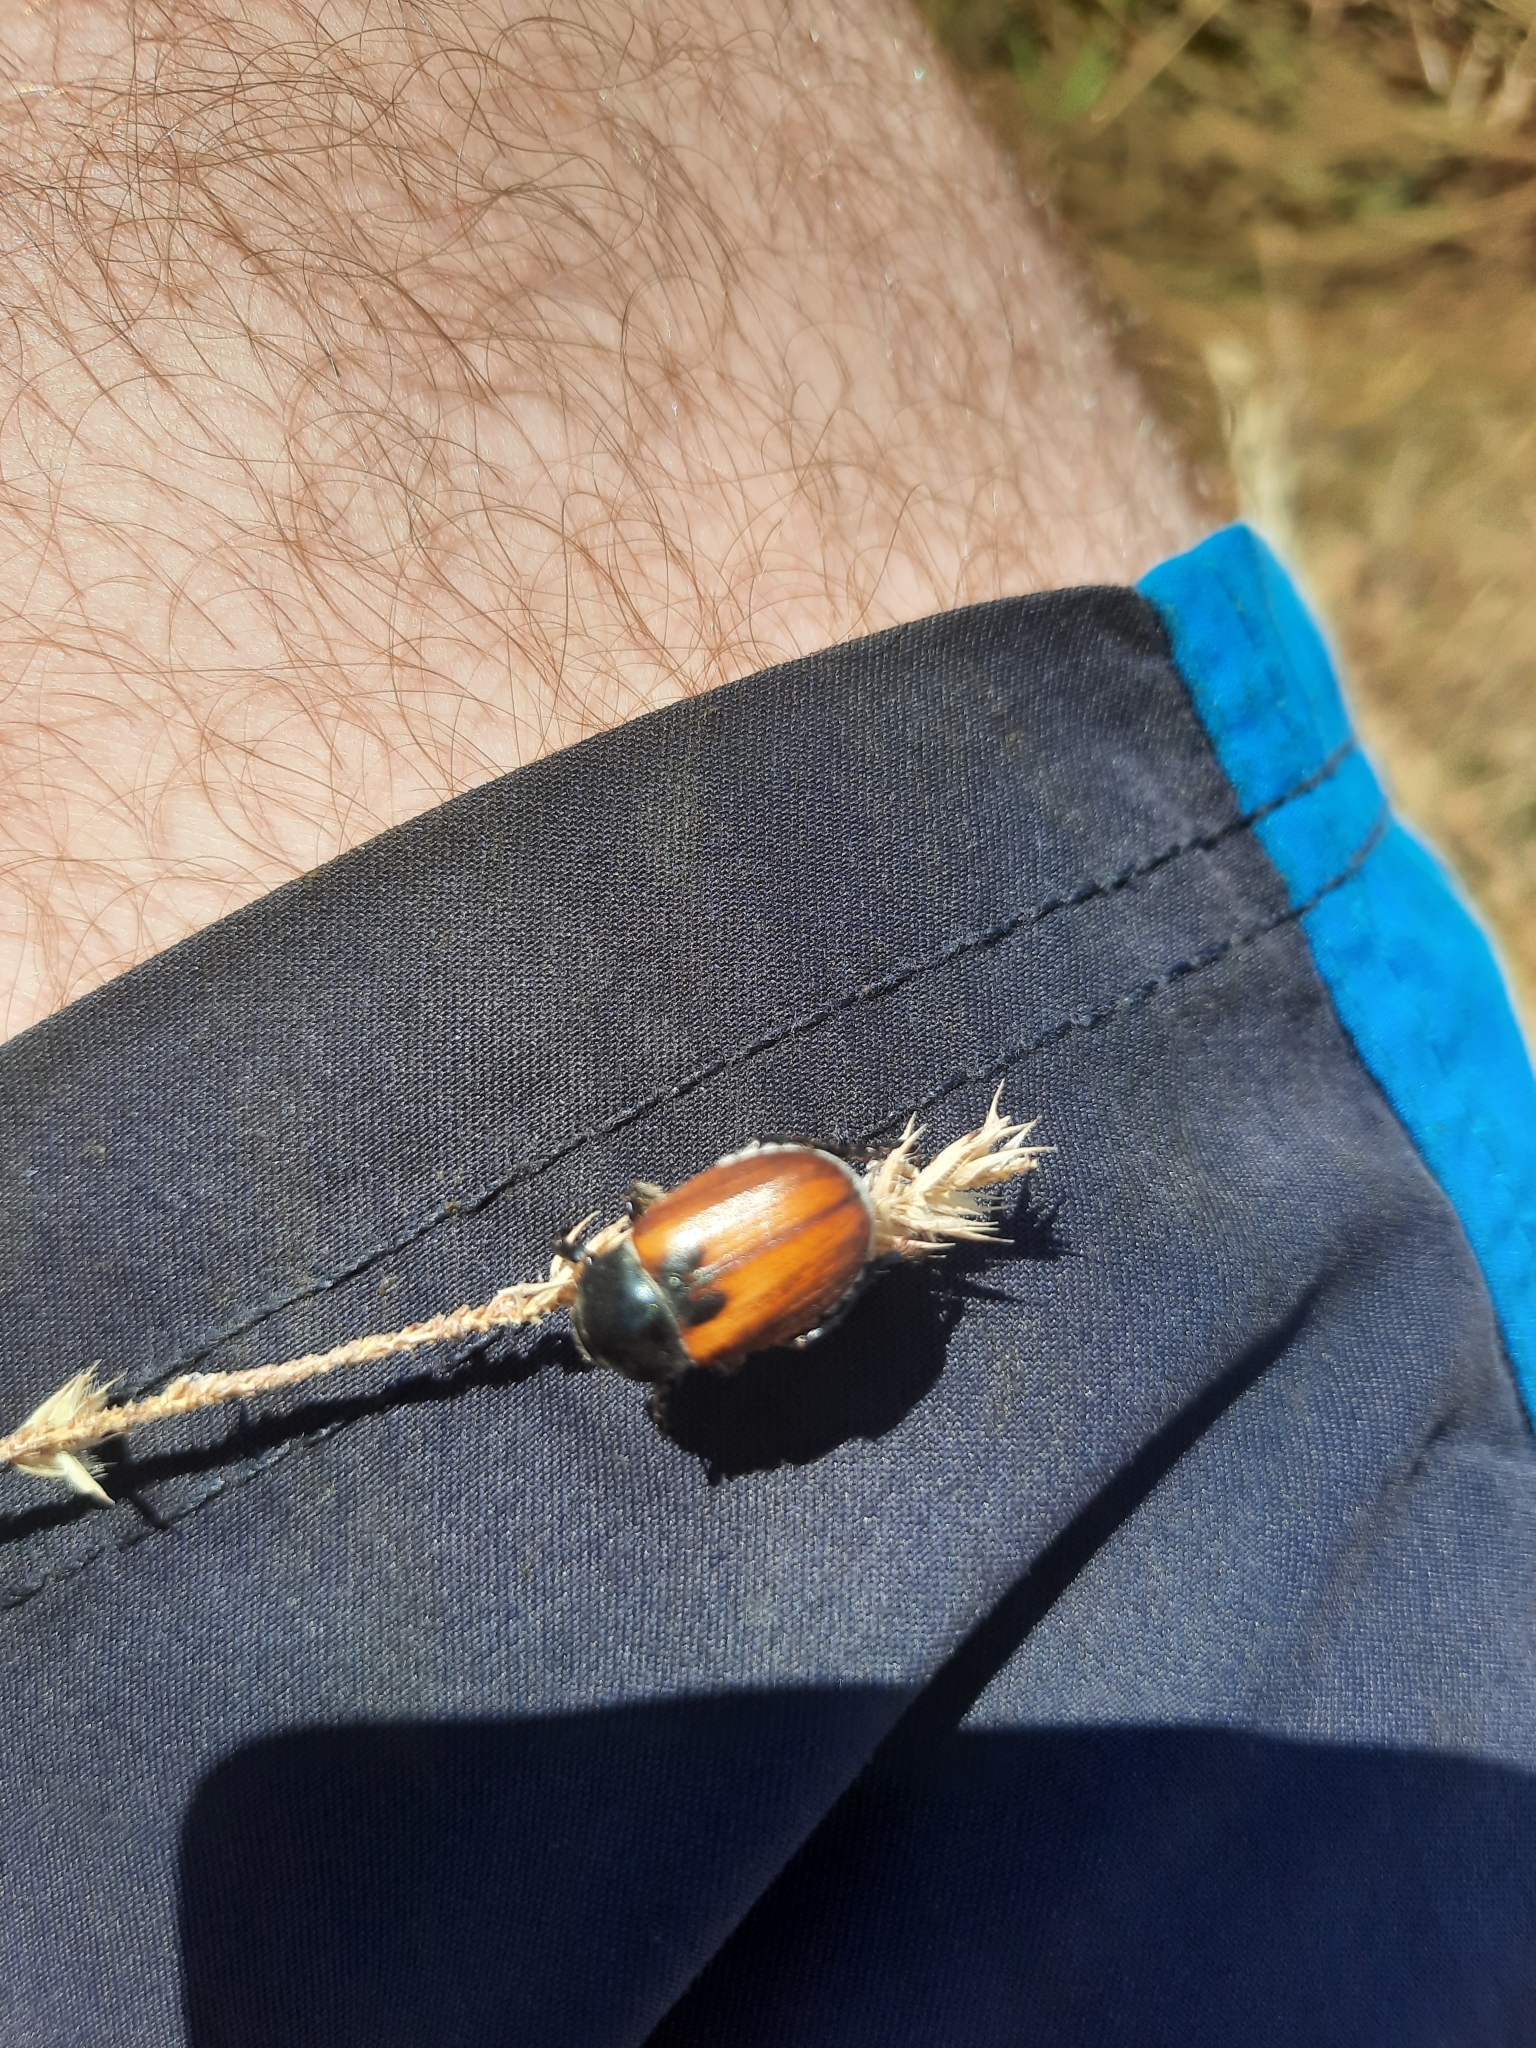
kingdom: Animalia
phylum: Arthropoda
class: Insecta
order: Coleoptera
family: Scarabaeidae
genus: Anisoplia
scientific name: Anisoplia austriaca
